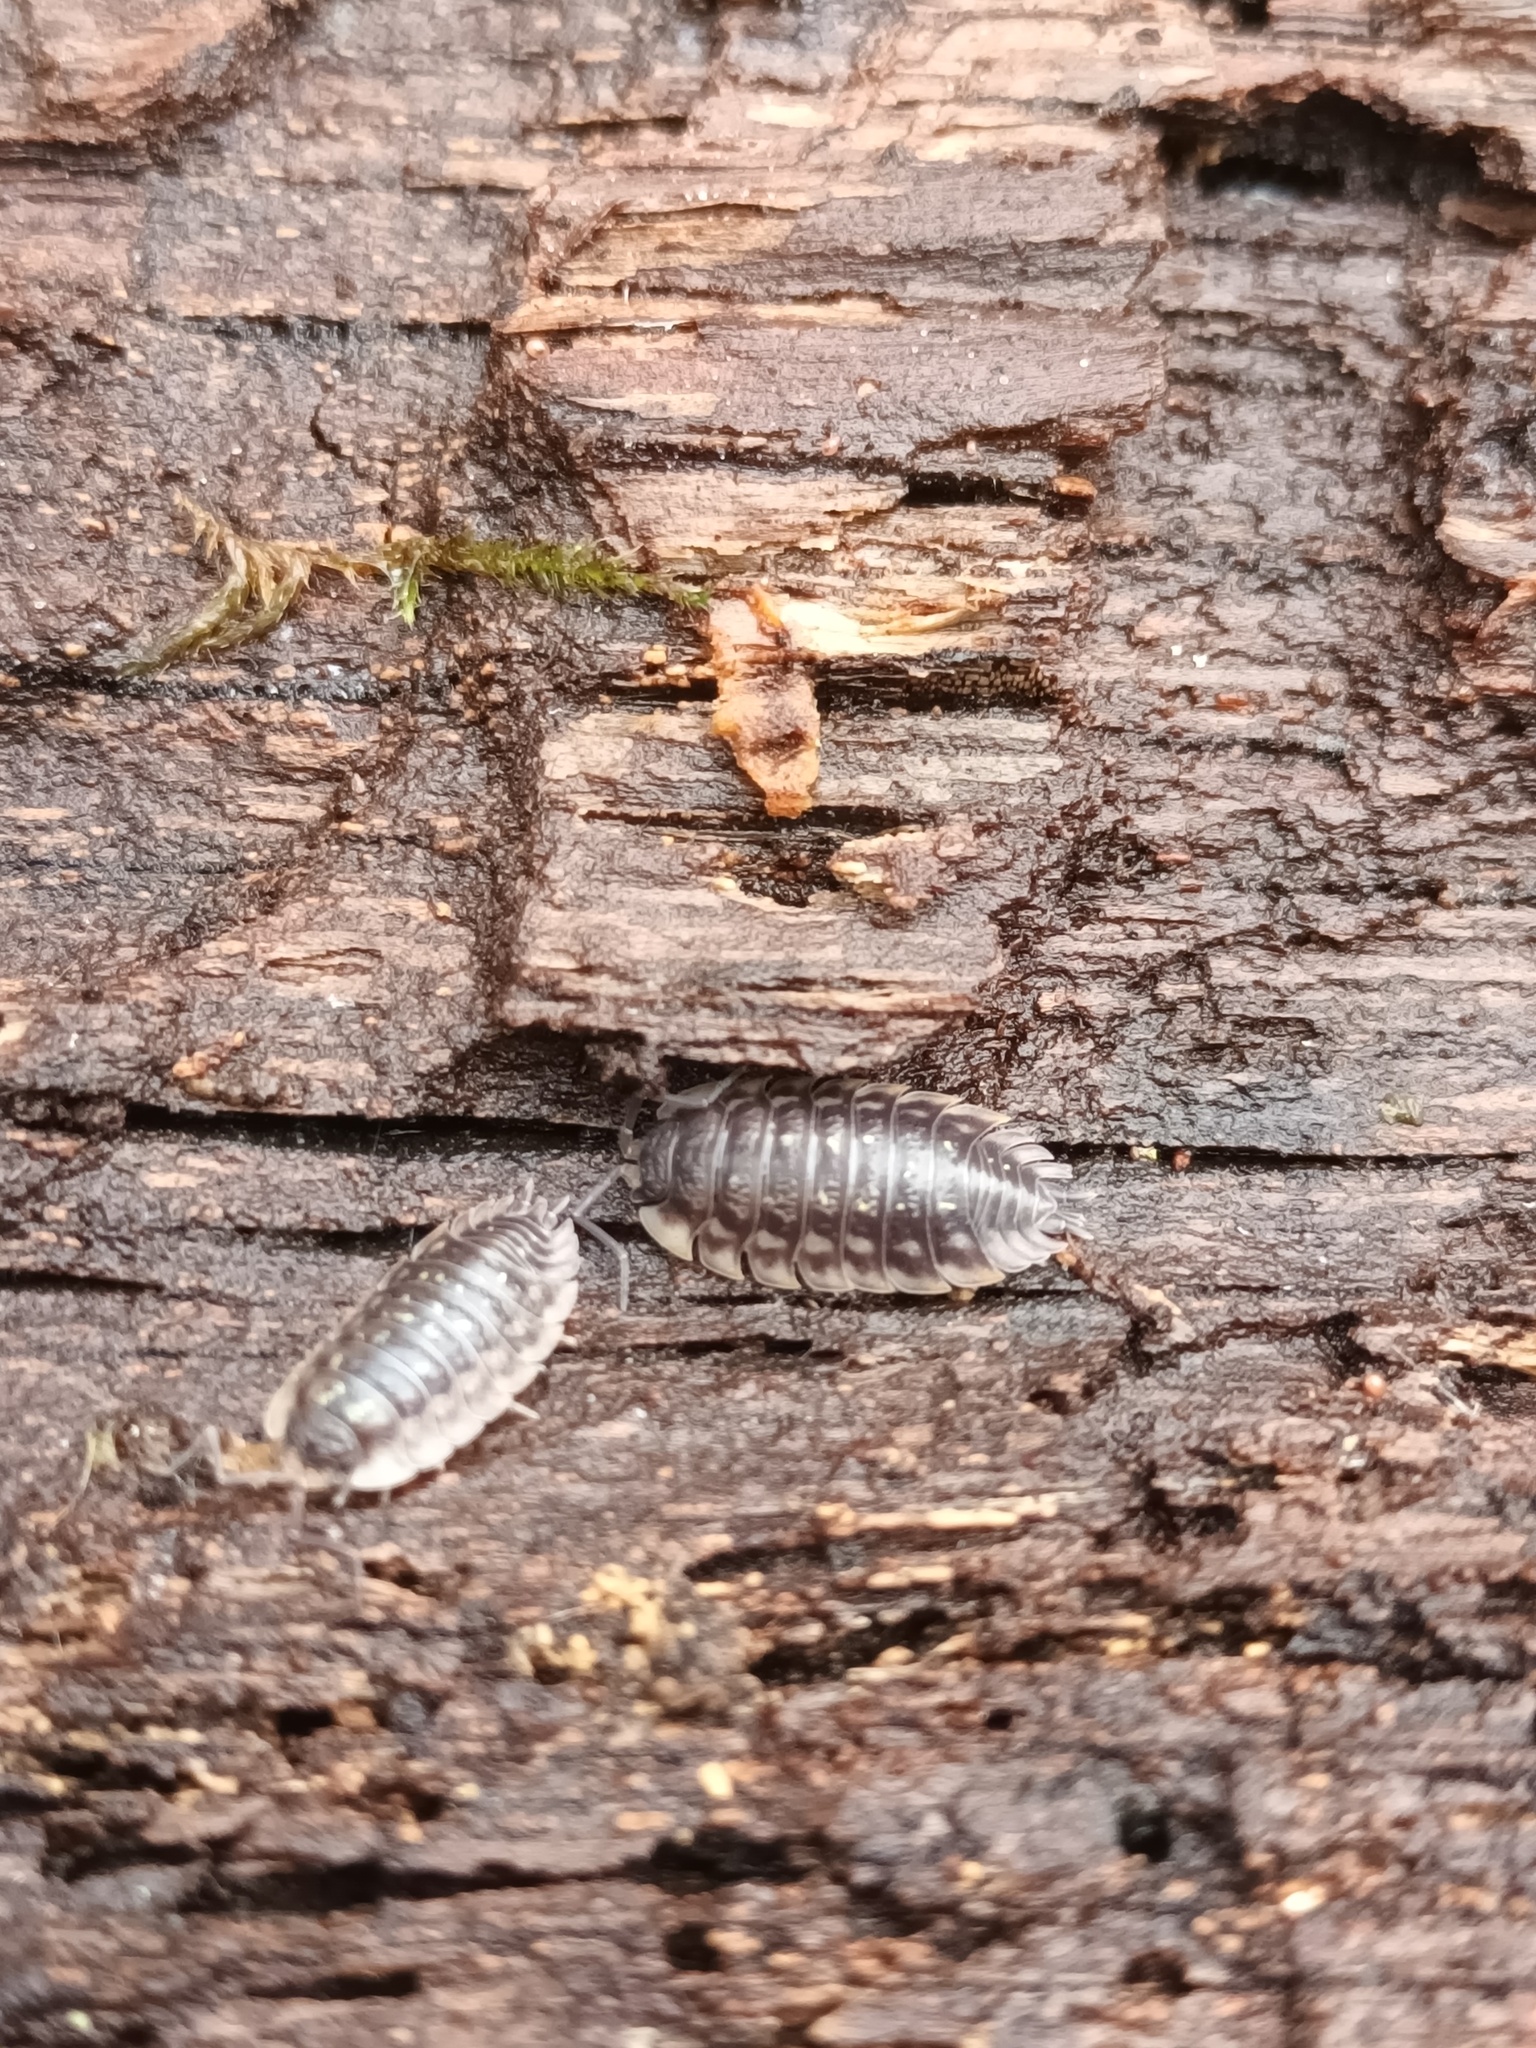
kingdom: Animalia
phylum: Arthropoda
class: Malacostraca
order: Isopoda
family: Oniscidae
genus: Oniscus
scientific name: Oniscus asellus
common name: Common shiny woodlouse
